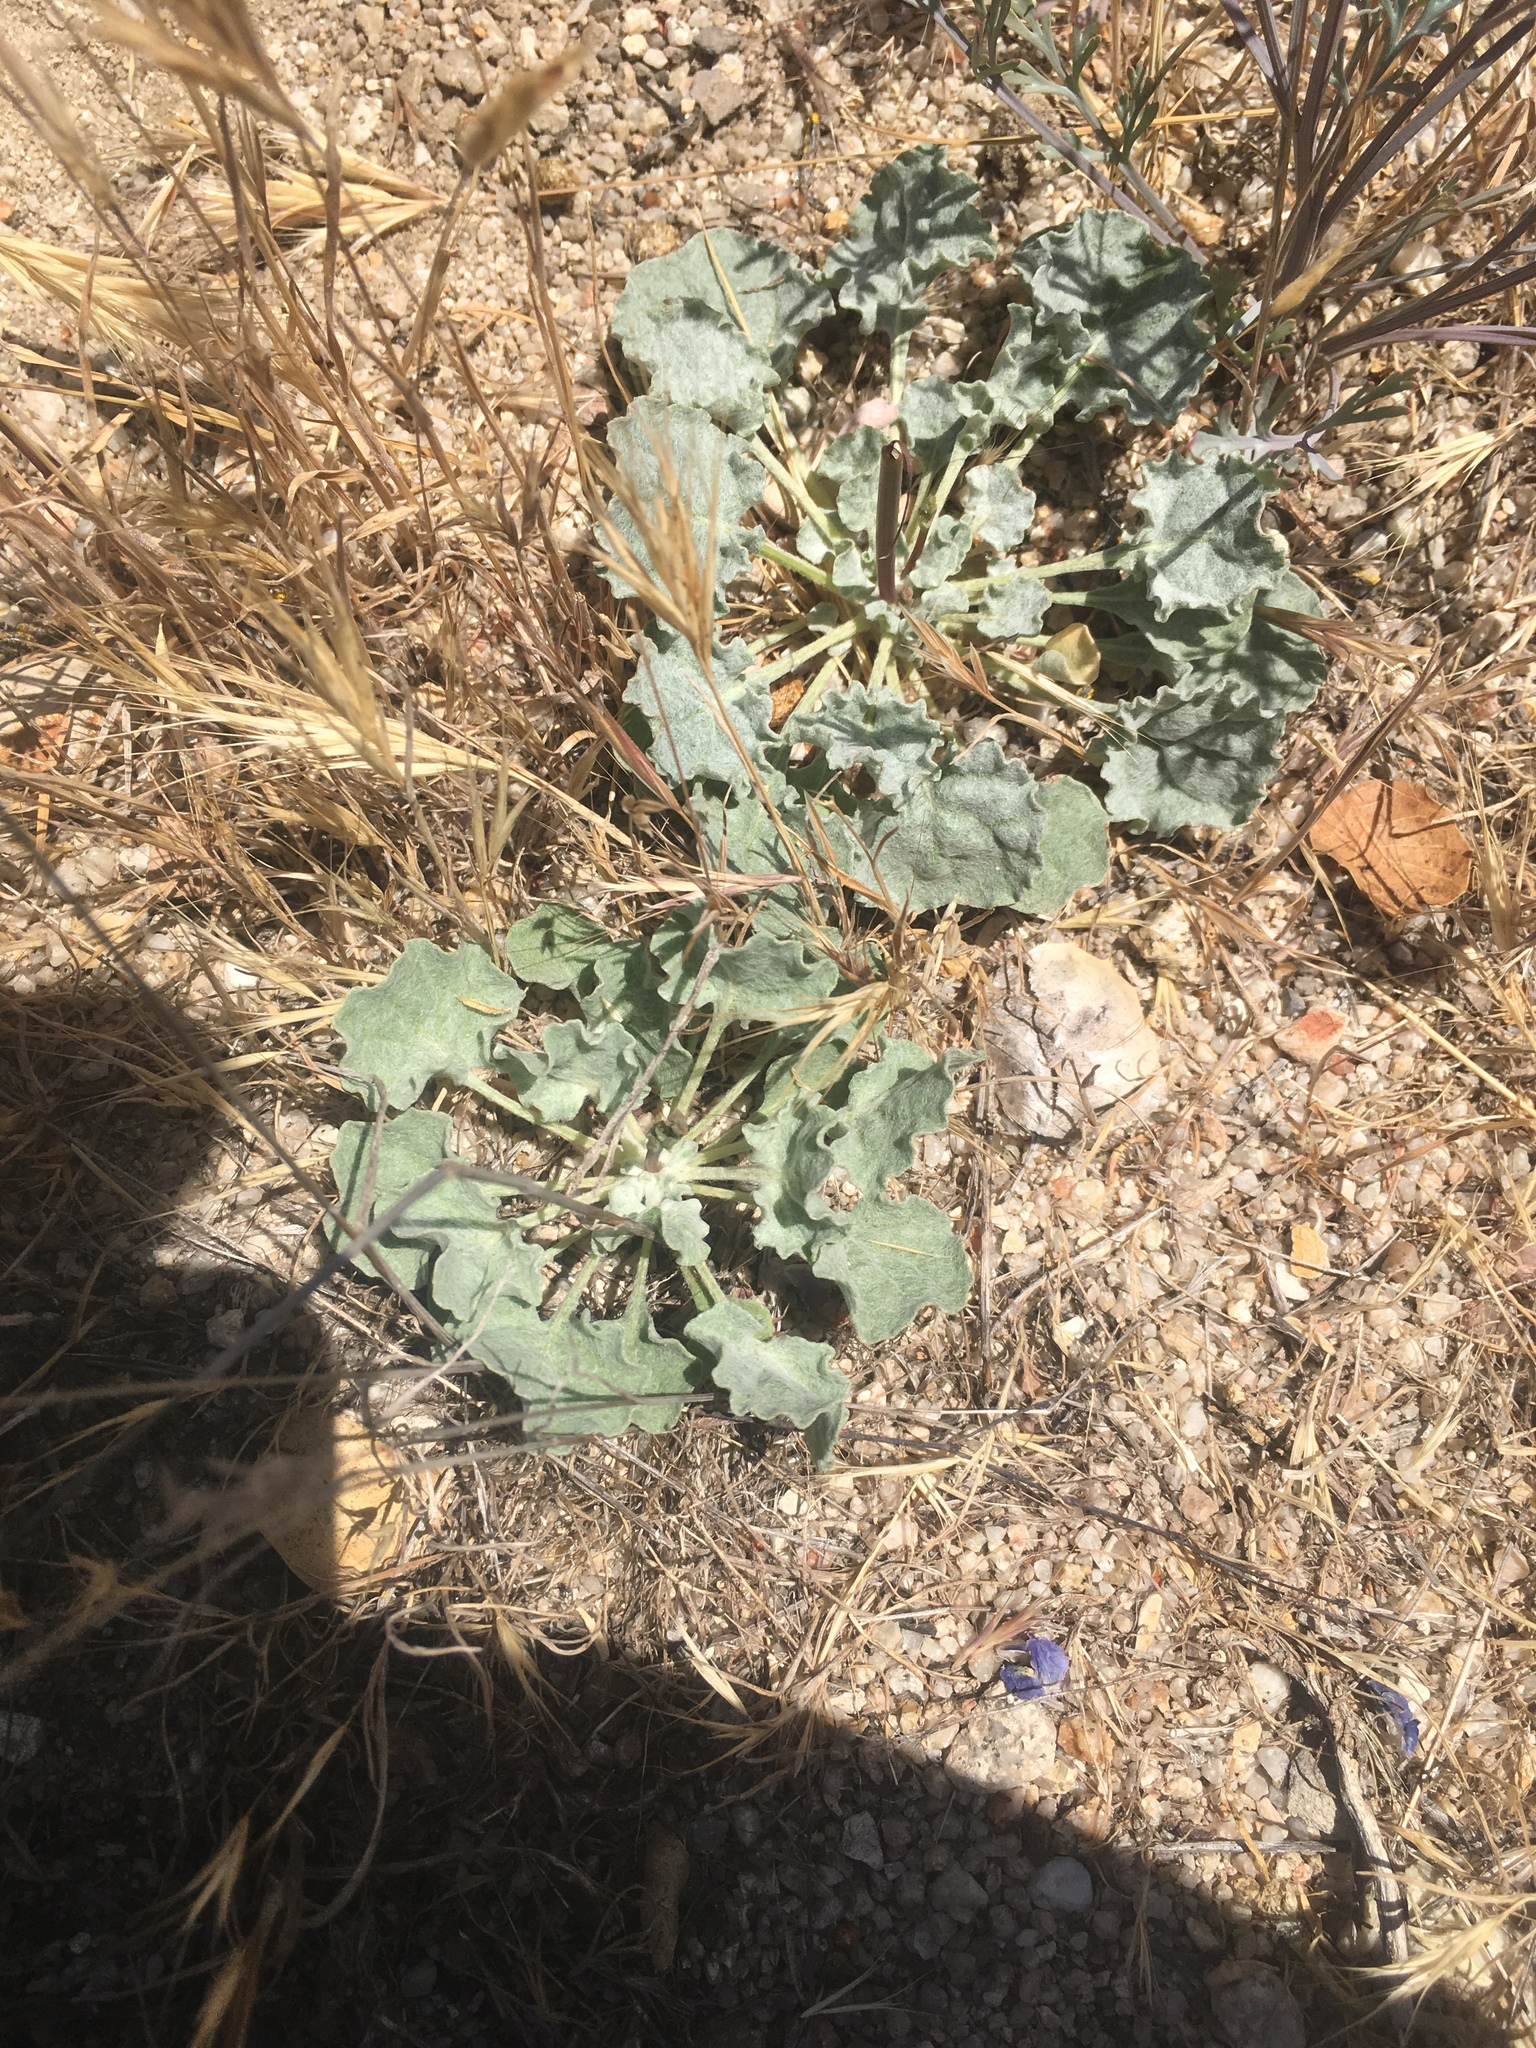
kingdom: Plantae
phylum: Tracheophyta
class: Magnoliopsida
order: Caryophyllales
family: Polygonaceae
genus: Eriogonum
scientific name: Eriogonum elegans
